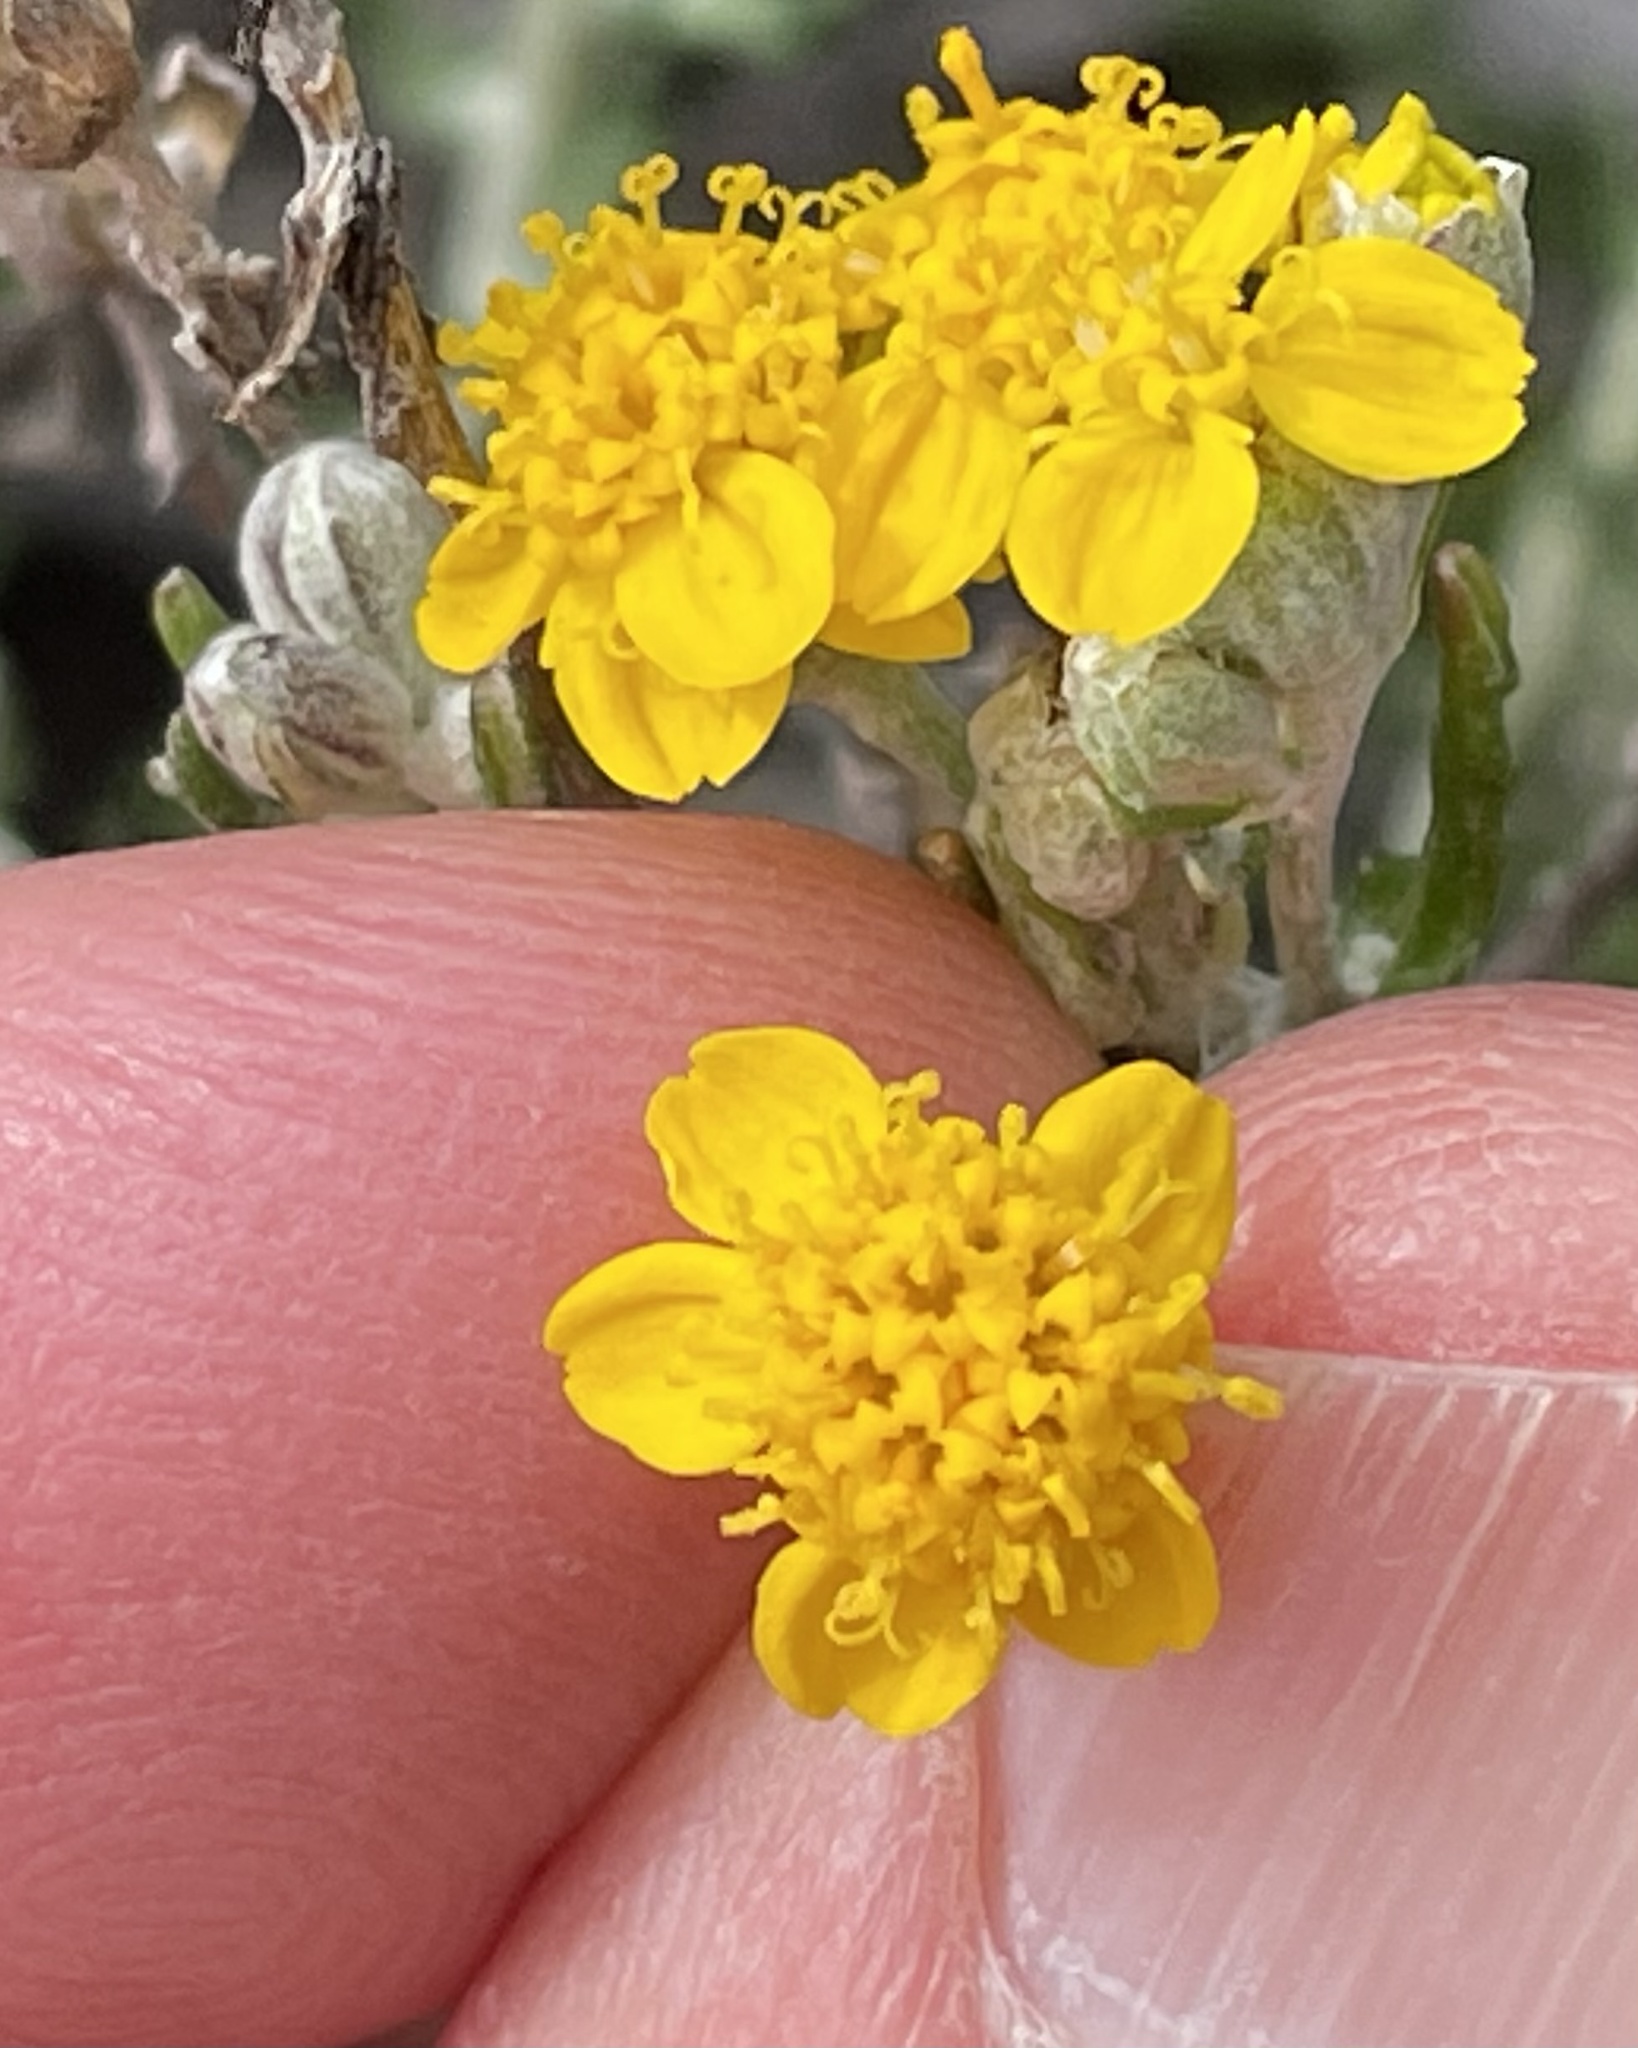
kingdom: Plantae
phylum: Tracheophyta
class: Magnoliopsida
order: Asterales
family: Asteraceae
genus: Eriophyllum
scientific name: Eriophyllum confertiflorum
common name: Golden-yarrow
